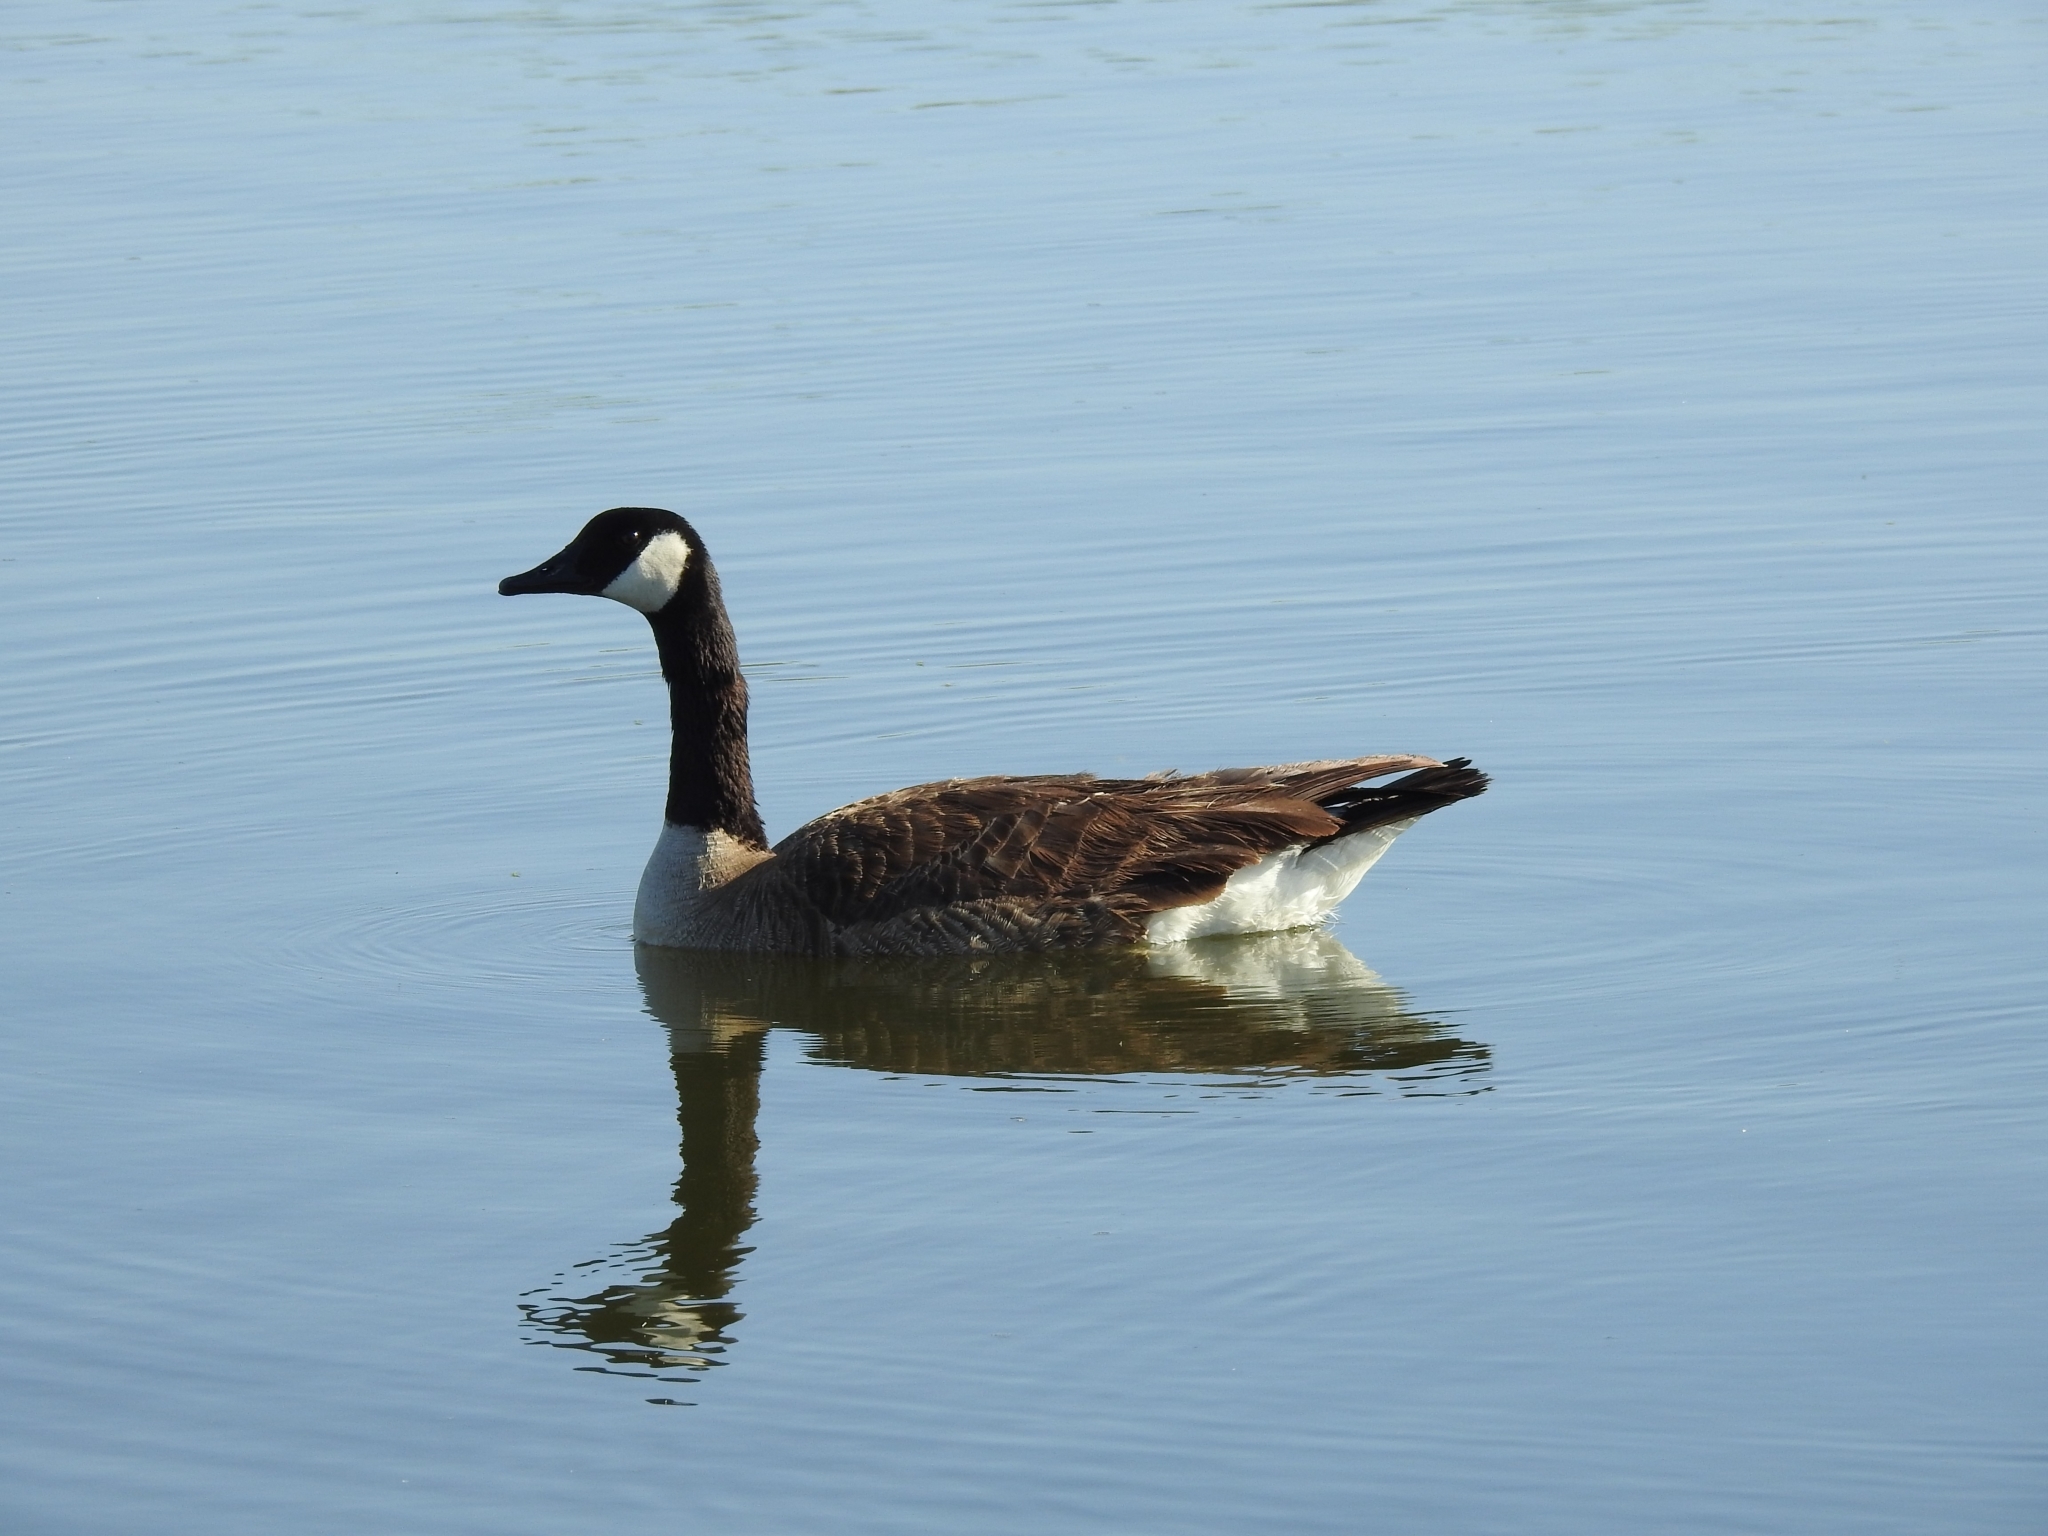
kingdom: Animalia
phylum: Chordata
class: Aves
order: Anseriformes
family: Anatidae
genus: Branta
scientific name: Branta canadensis
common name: Canada goose
